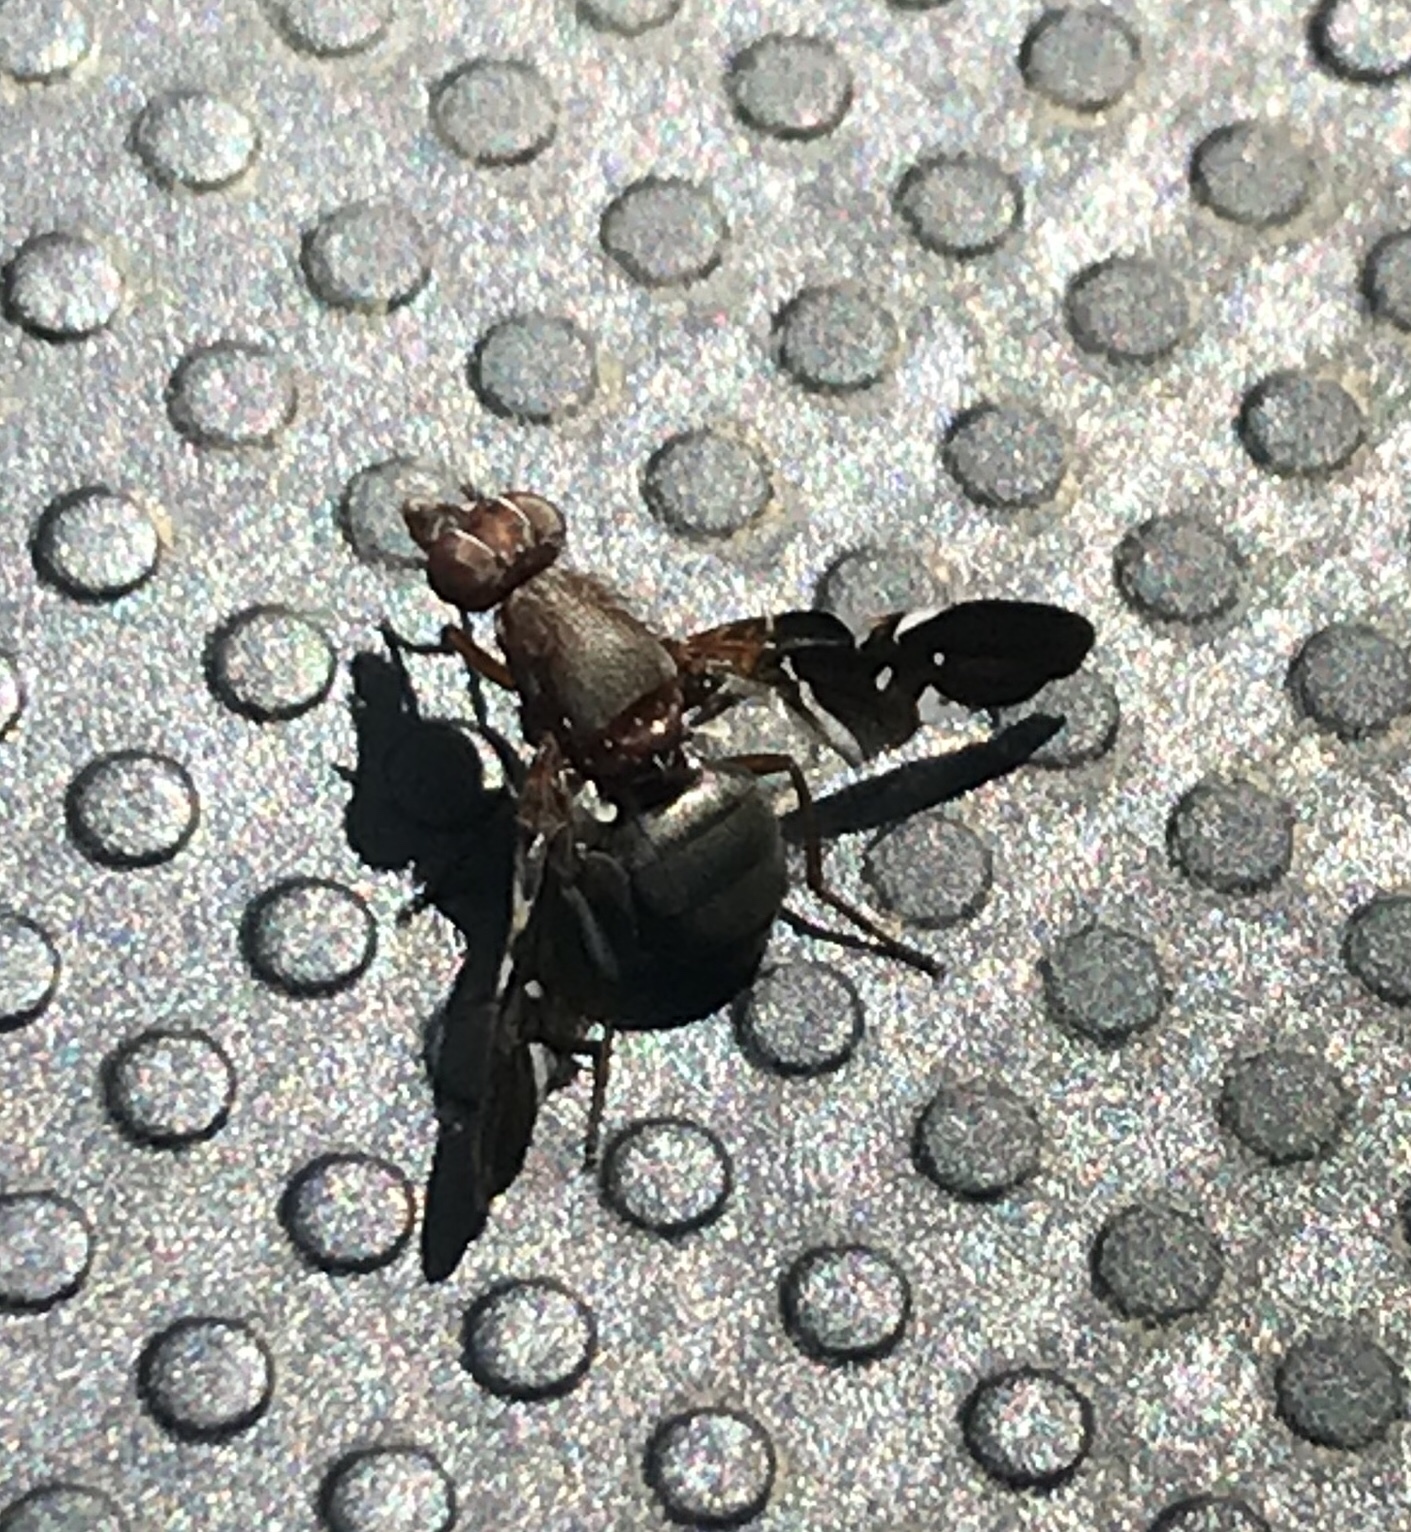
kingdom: Animalia
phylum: Arthropoda
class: Insecta
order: Diptera
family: Ulidiidae
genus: Delphinia
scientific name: Delphinia picta
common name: Common picture-winged fly
